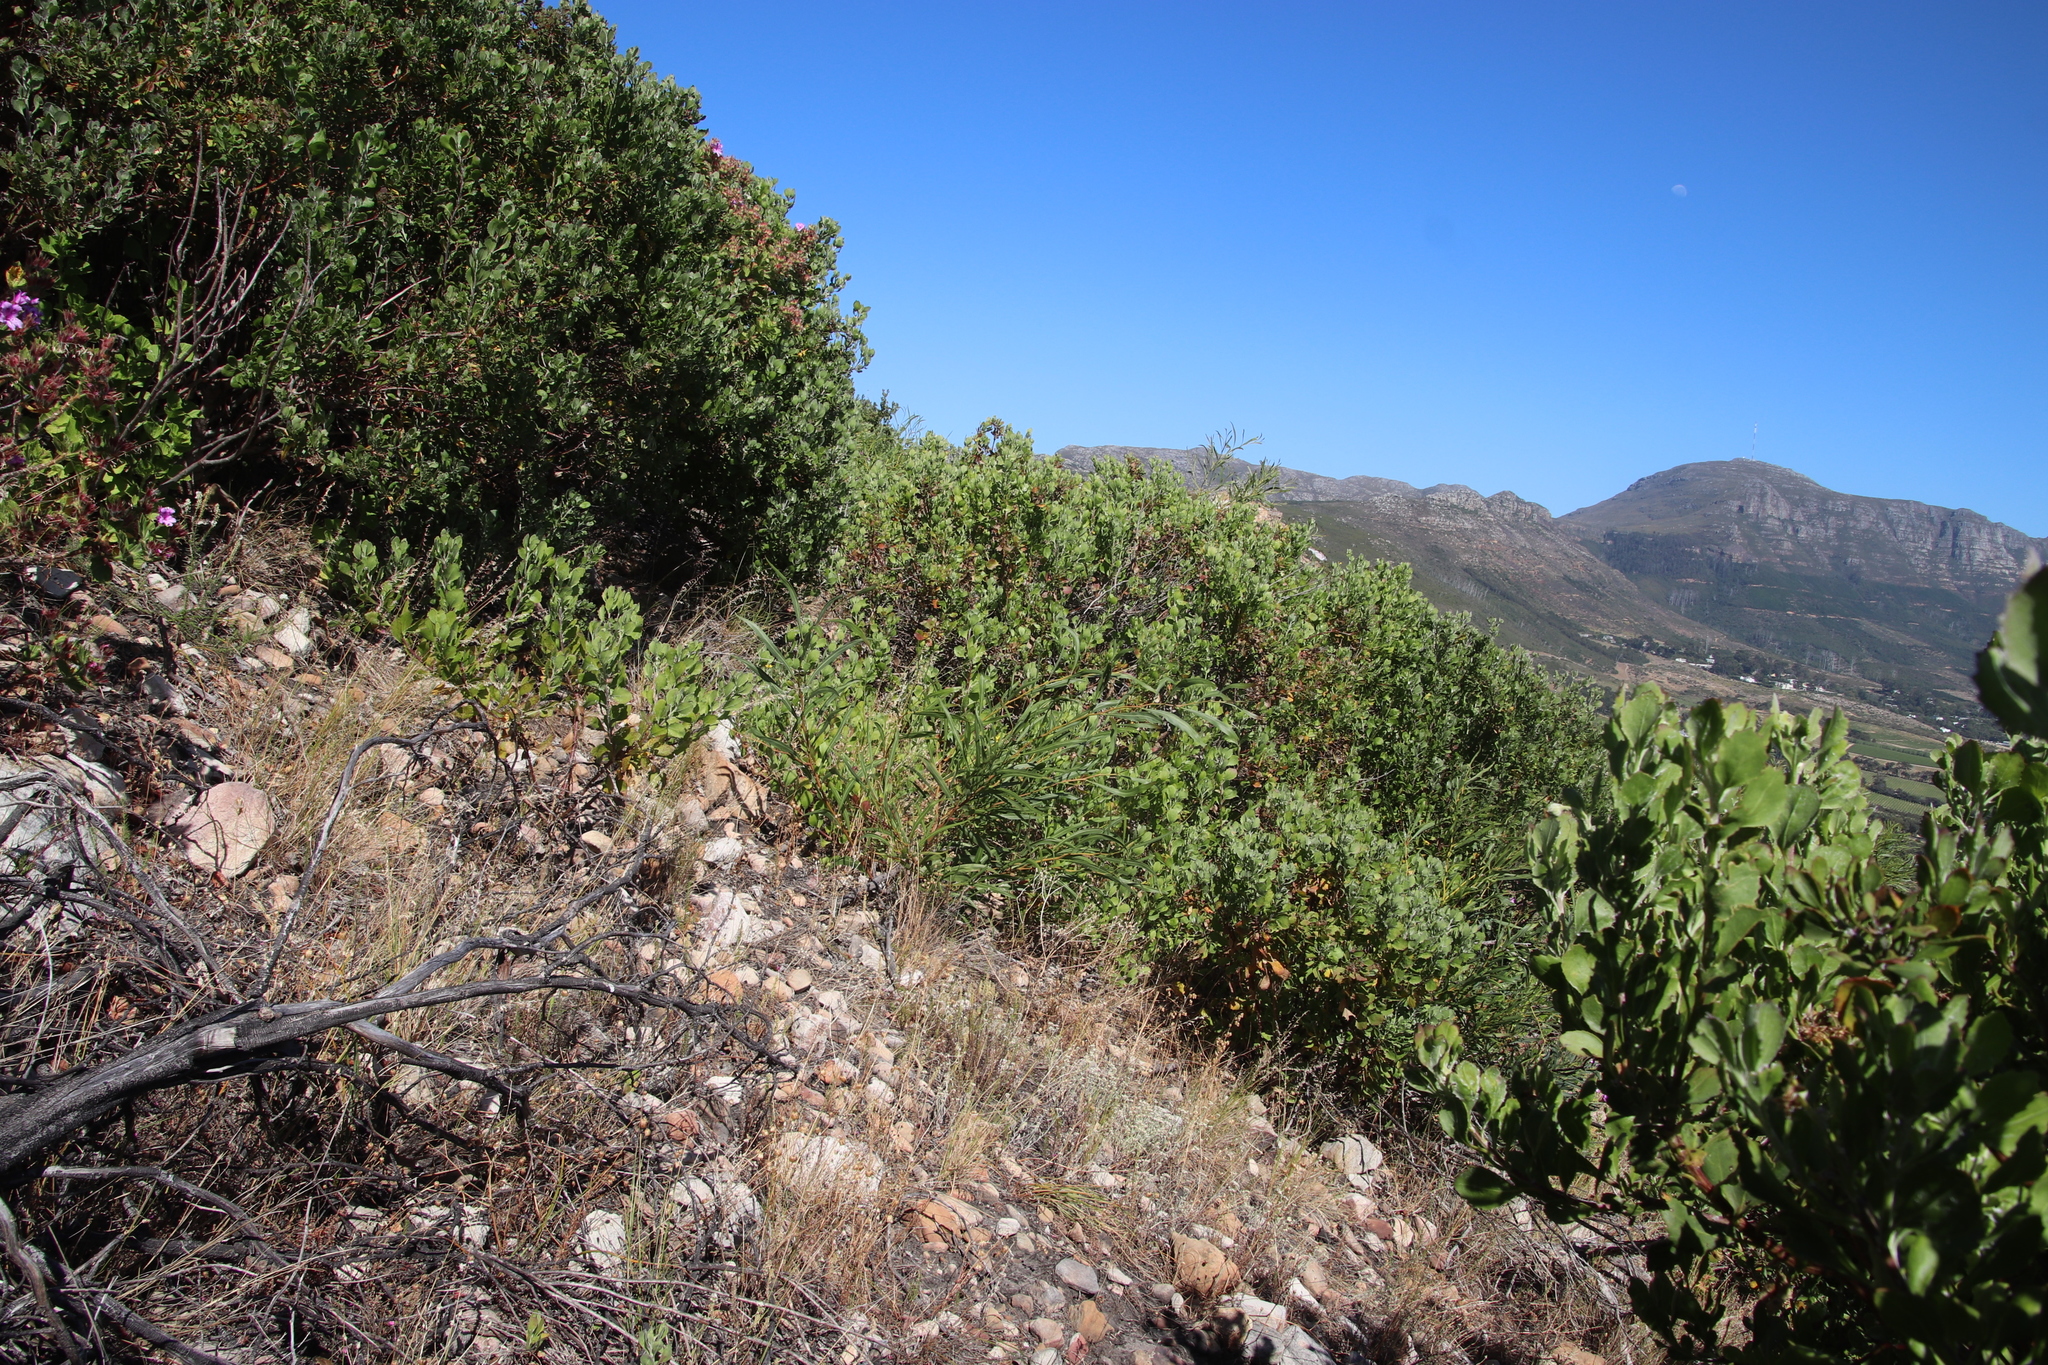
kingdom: Plantae
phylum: Tracheophyta
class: Magnoliopsida
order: Fabales
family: Fabaceae
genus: Acacia
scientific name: Acacia saligna
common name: Orange wattle
